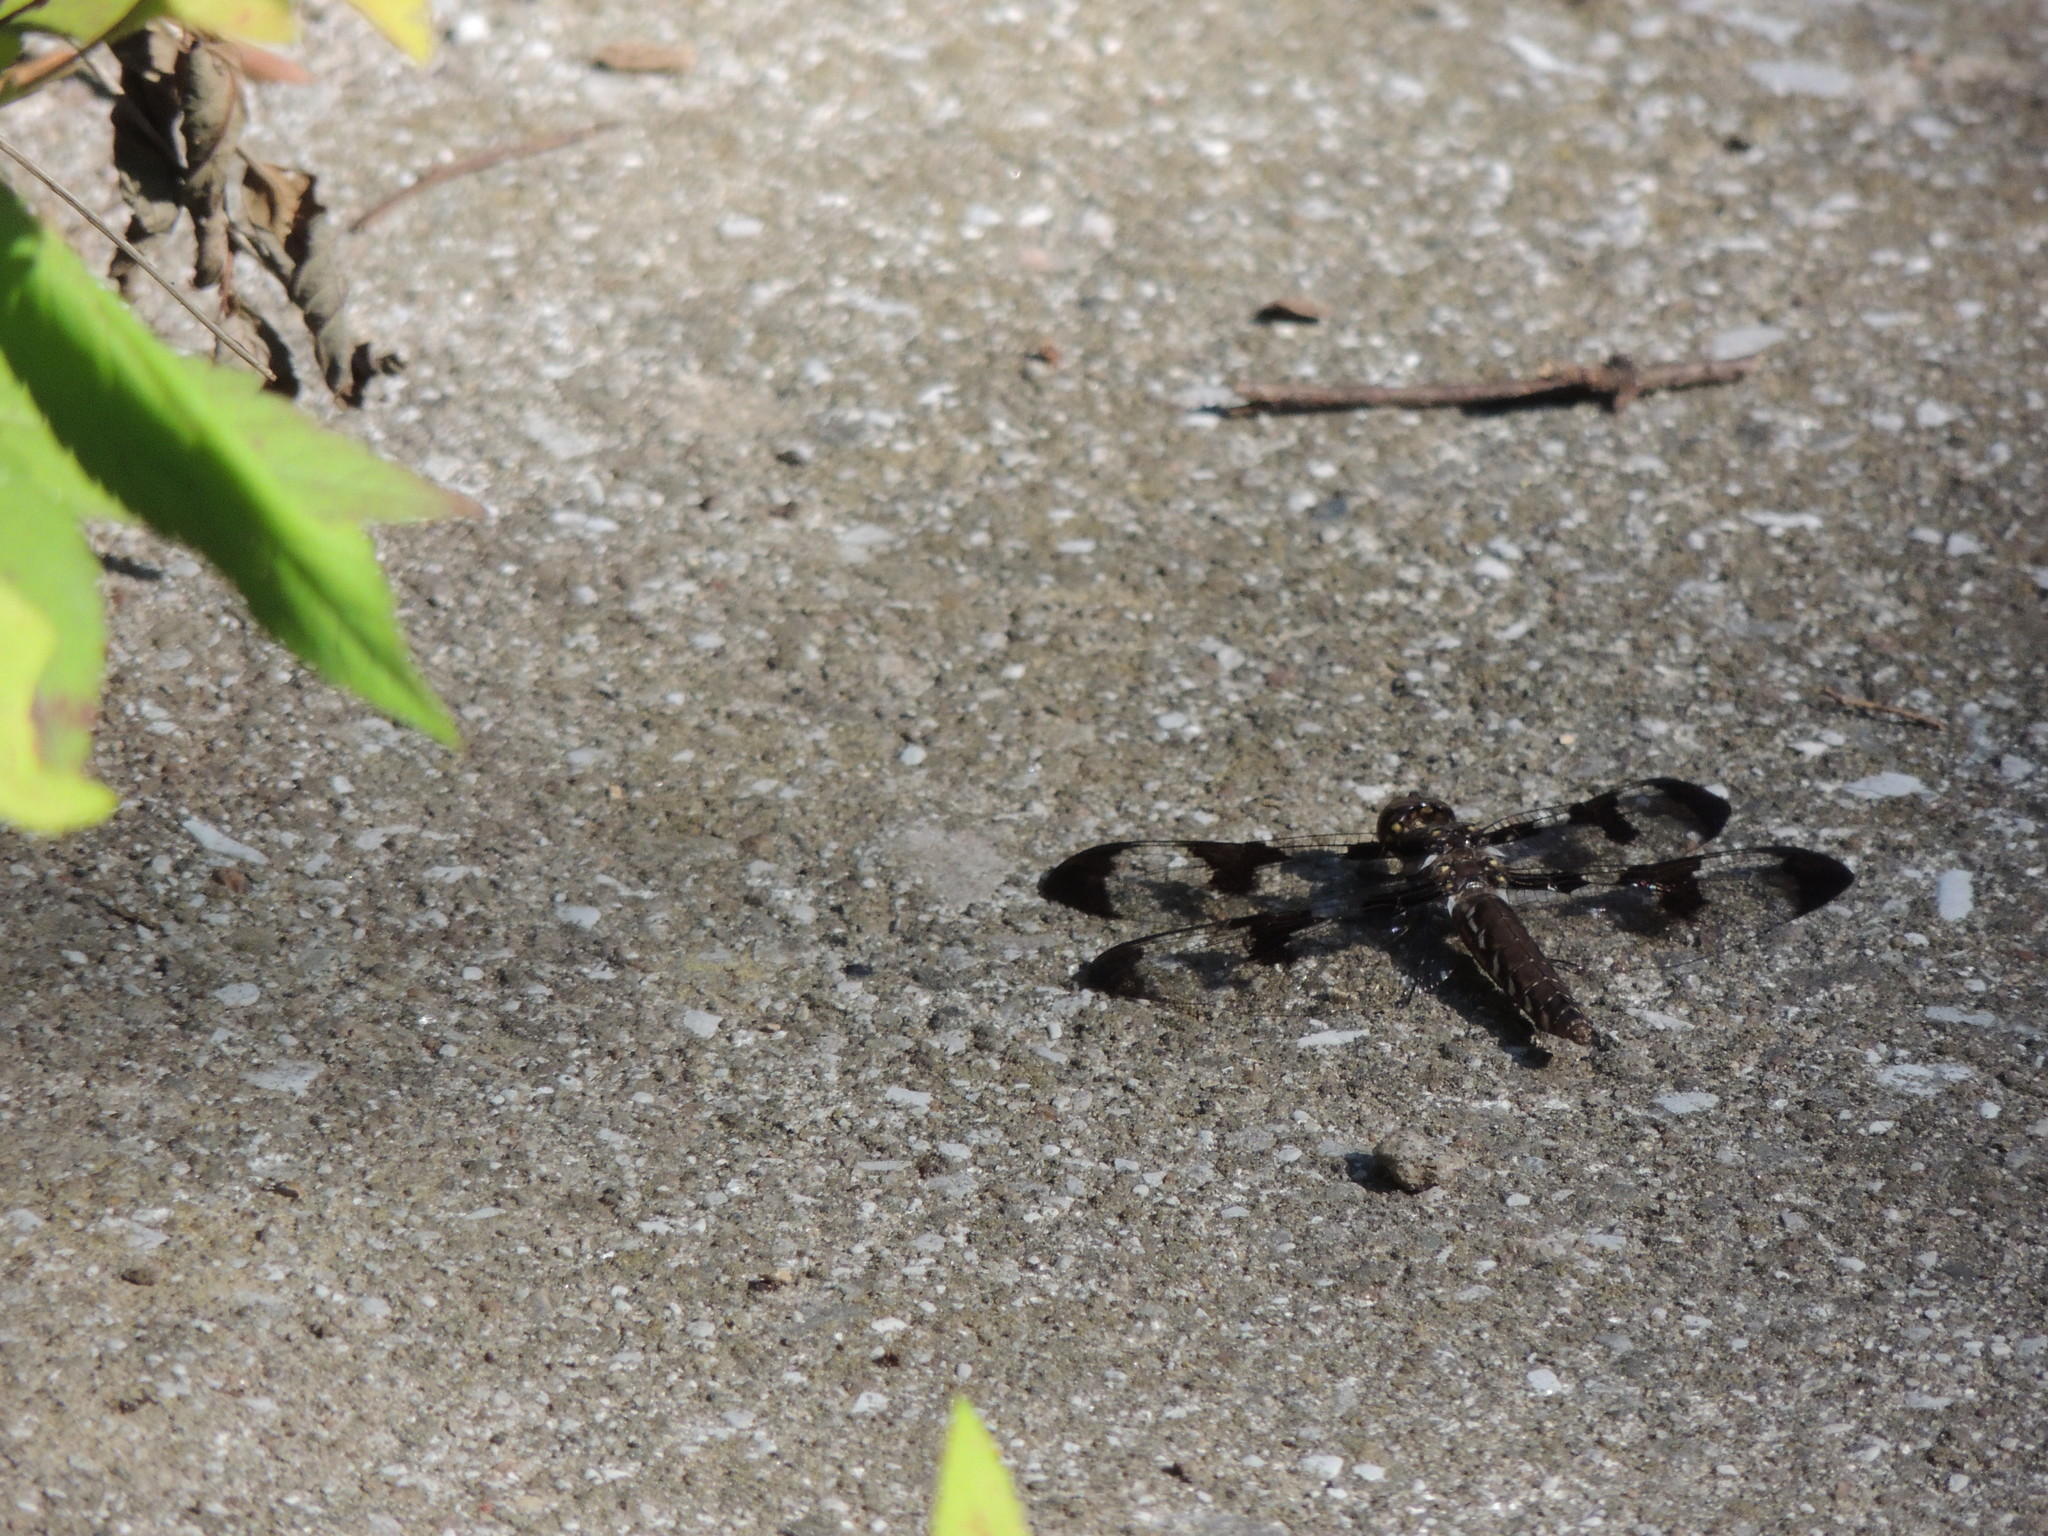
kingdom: Animalia
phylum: Arthropoda
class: Insecta
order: Odonata
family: Libellulidae
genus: Plathemis
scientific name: Plathemis lydia
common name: Common whitetail
